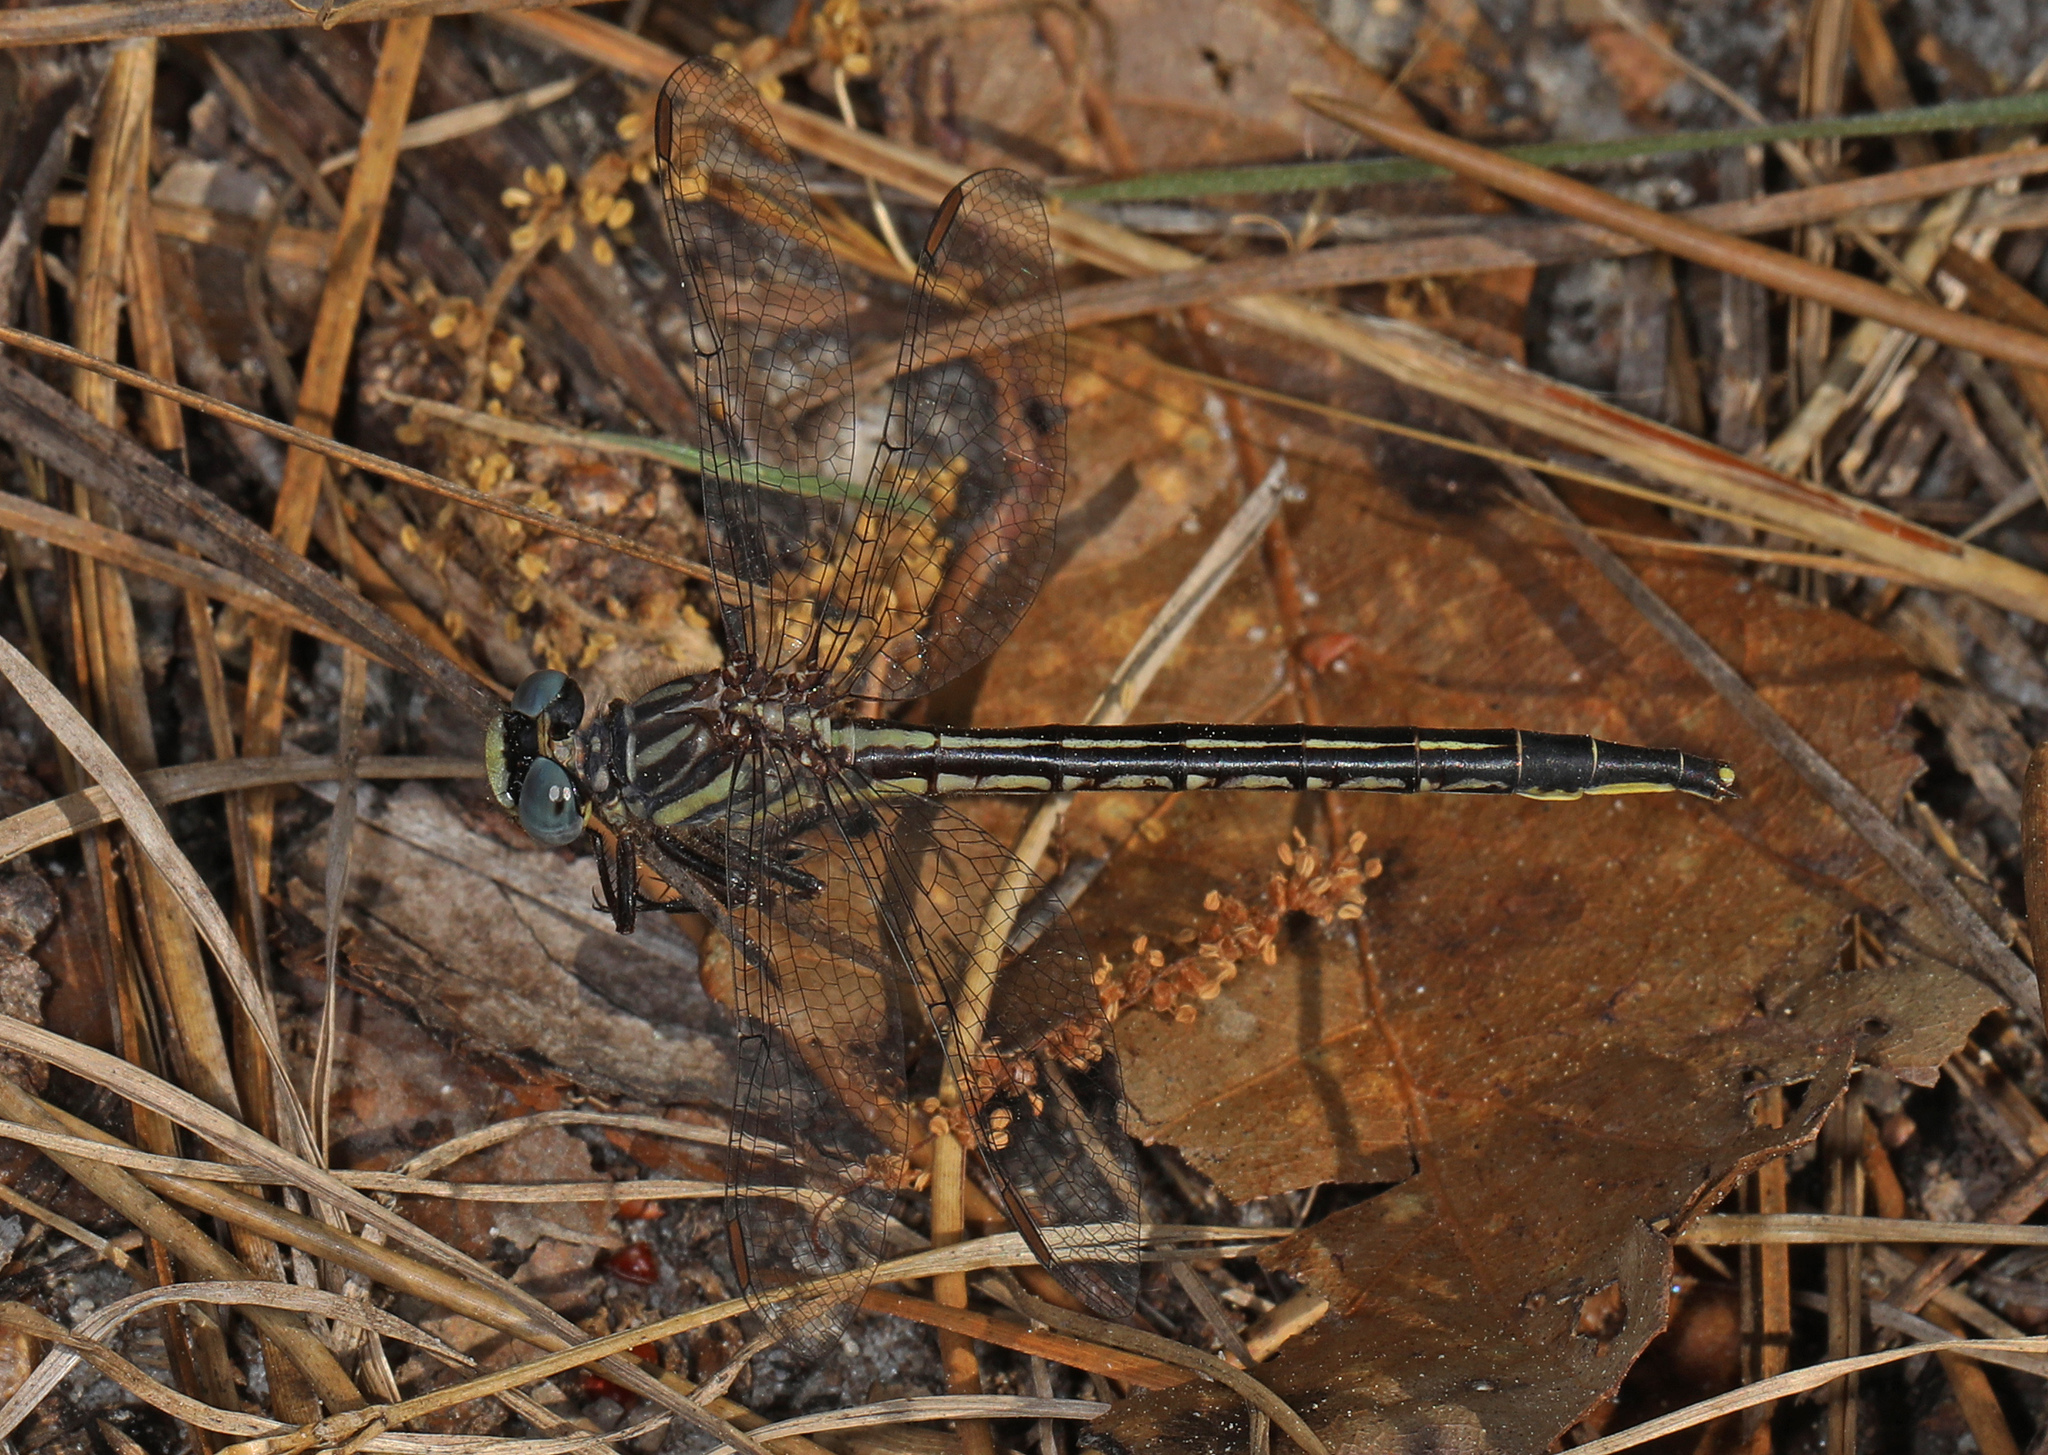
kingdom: Animalia
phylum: Arthropoda
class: Insecta
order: Odonata
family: Gomphidae
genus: Phanogomphus
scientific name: Phanogomphus westfalli
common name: Westfall’s clubtail
